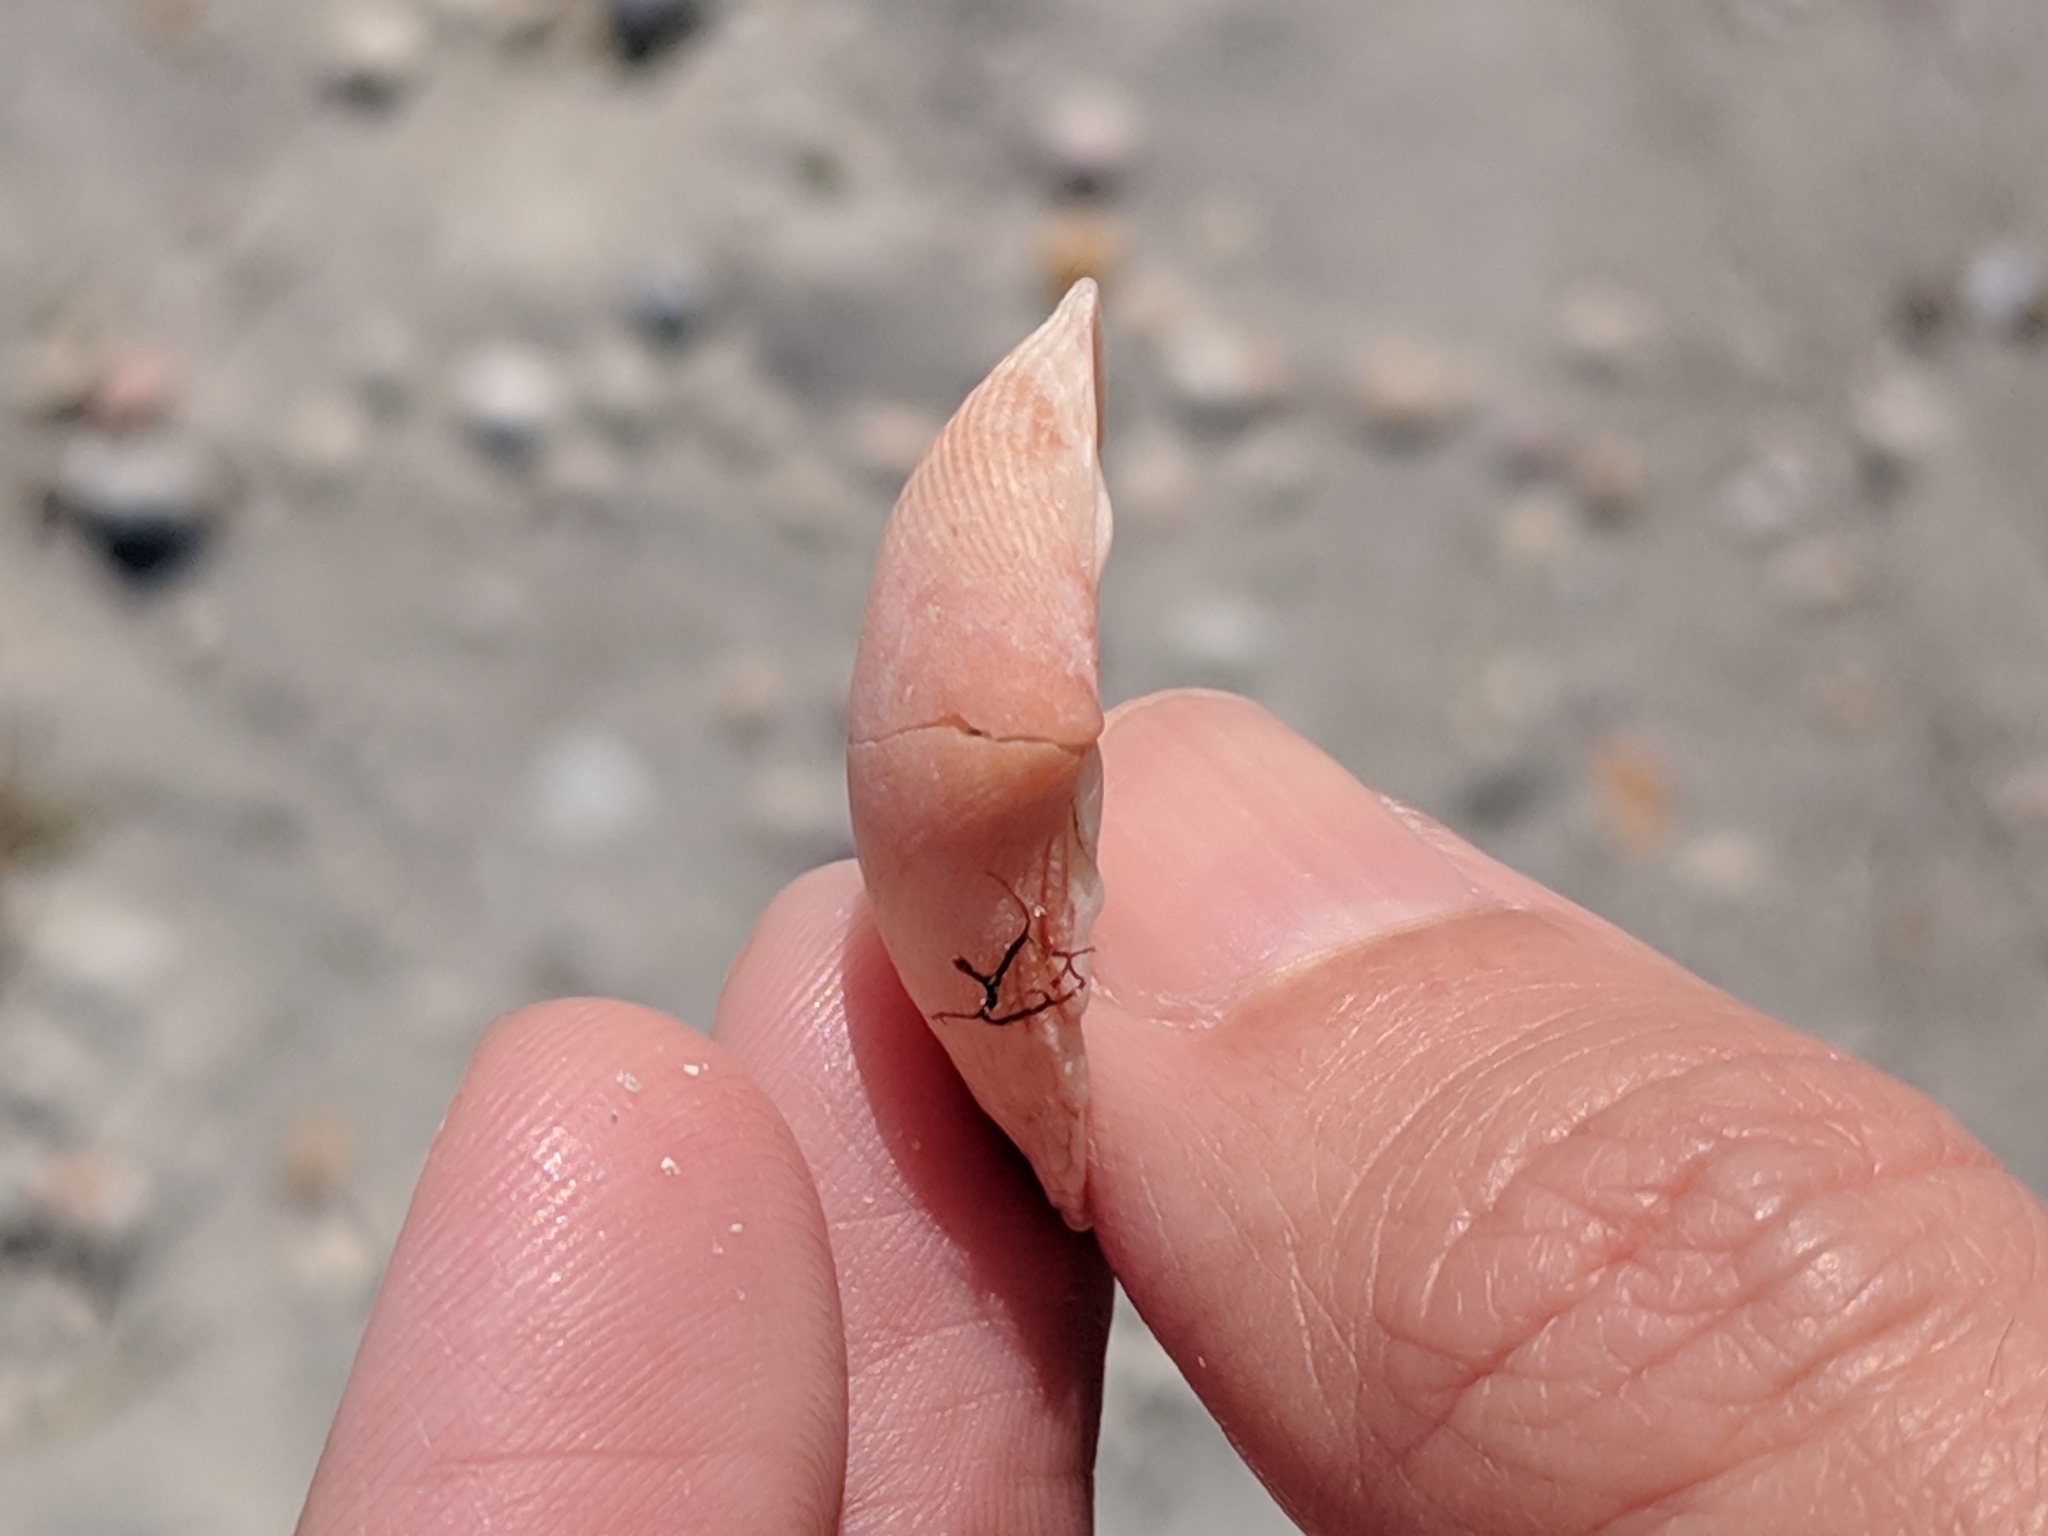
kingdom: Animalia
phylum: Mollusca
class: Bivalvia
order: Cardiida
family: Cardiidae
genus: Papyridea
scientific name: Papyridea lata
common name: Broad papercockle
